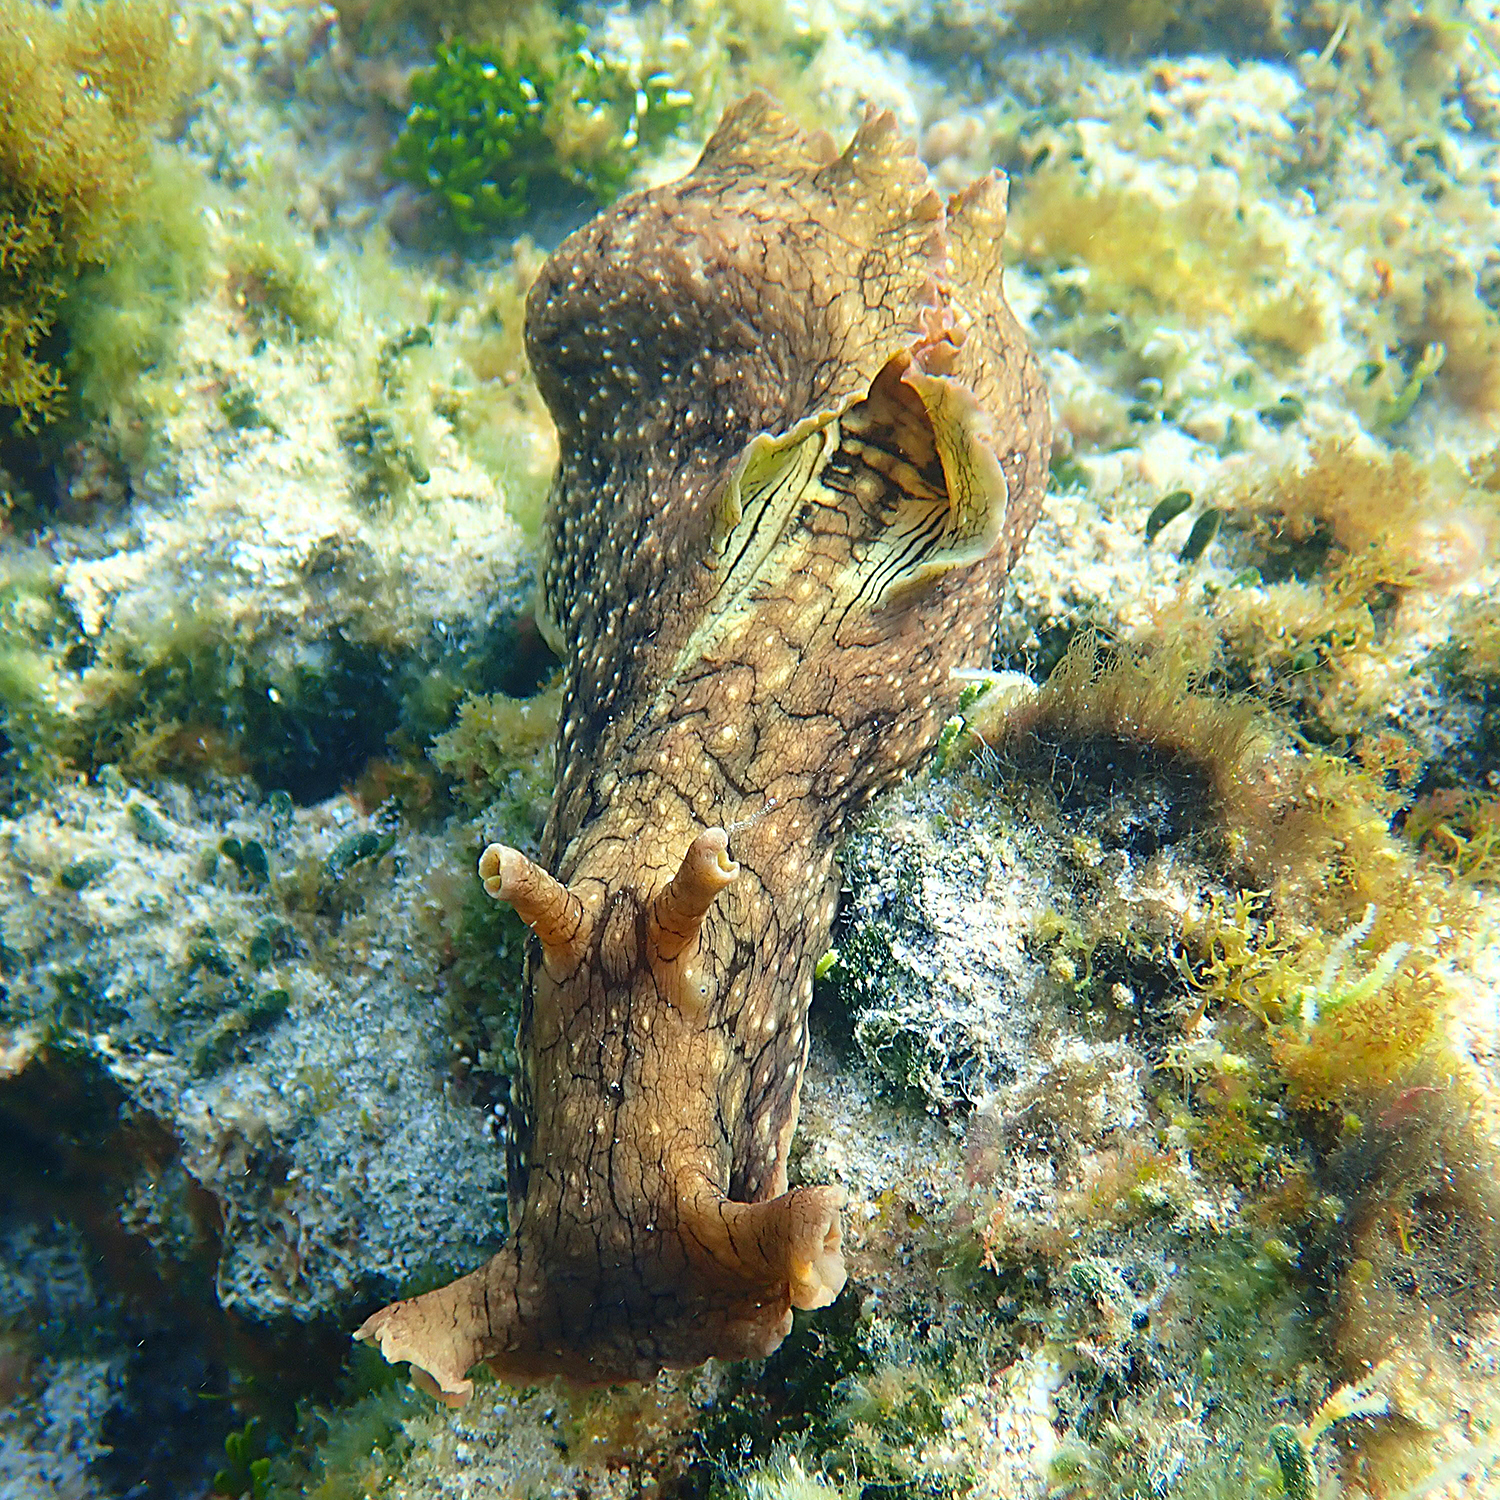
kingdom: Animalia
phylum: Mollusca
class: Gastropoda
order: Aplysiida
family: Aplysiidae
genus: Aplysia
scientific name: Aplysia argus
